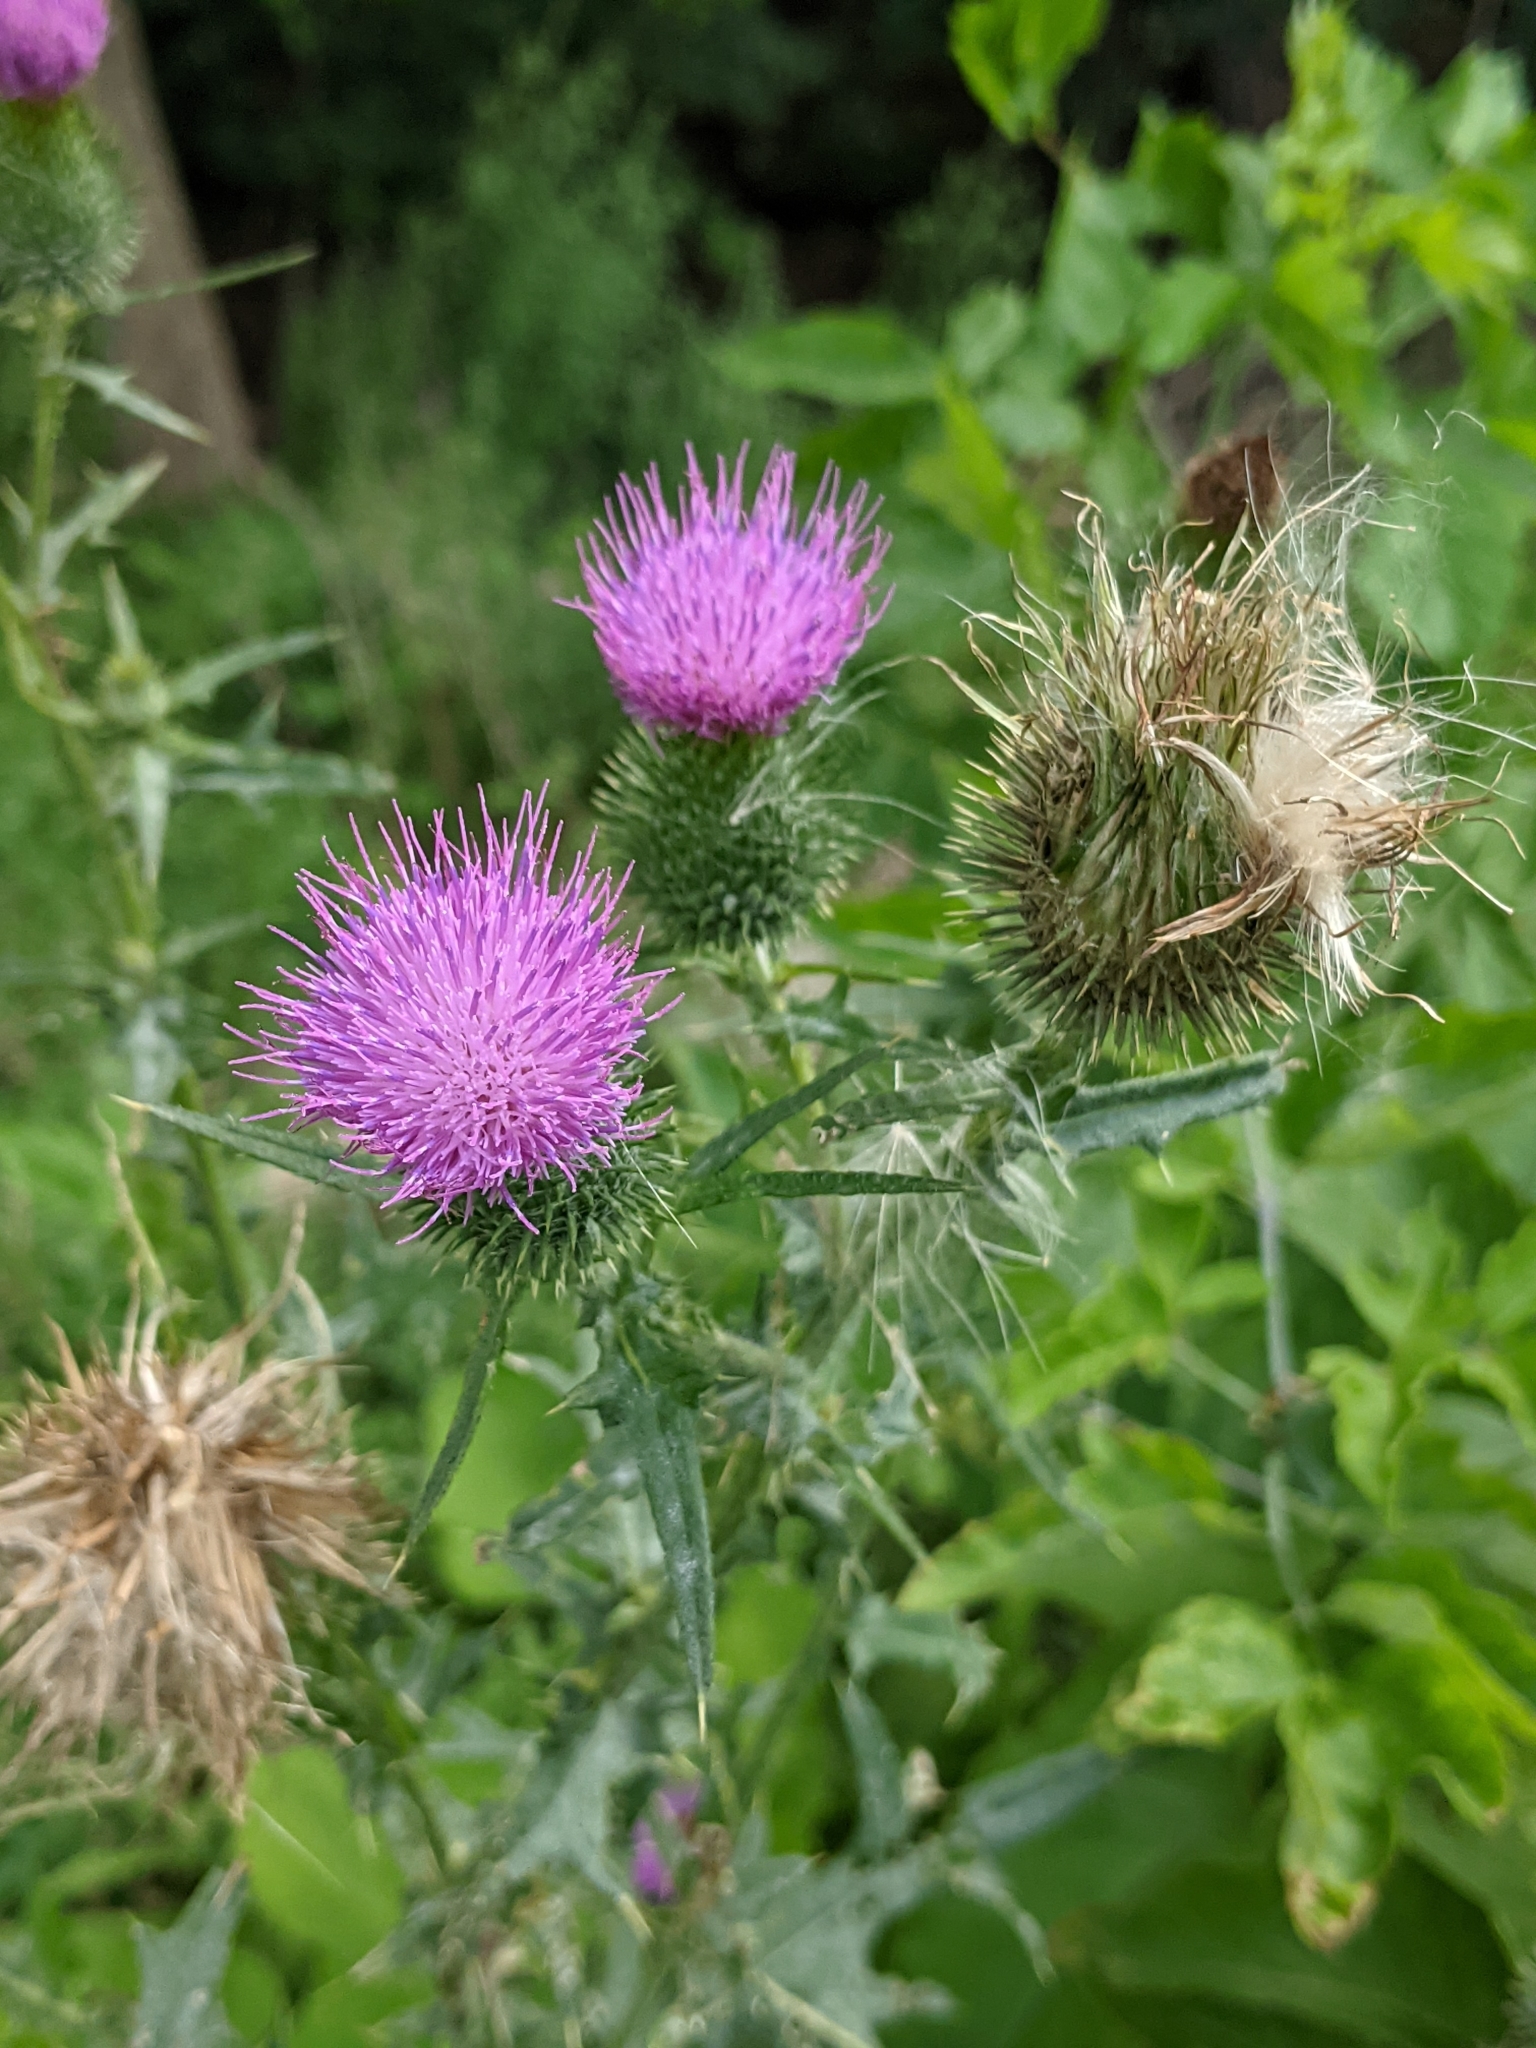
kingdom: Plantae
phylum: Tracheophyta
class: Magnoliopsida
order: Asterales
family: Asteraceae
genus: Cirsium
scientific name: Cirsium vulgare
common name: Bull thistle
